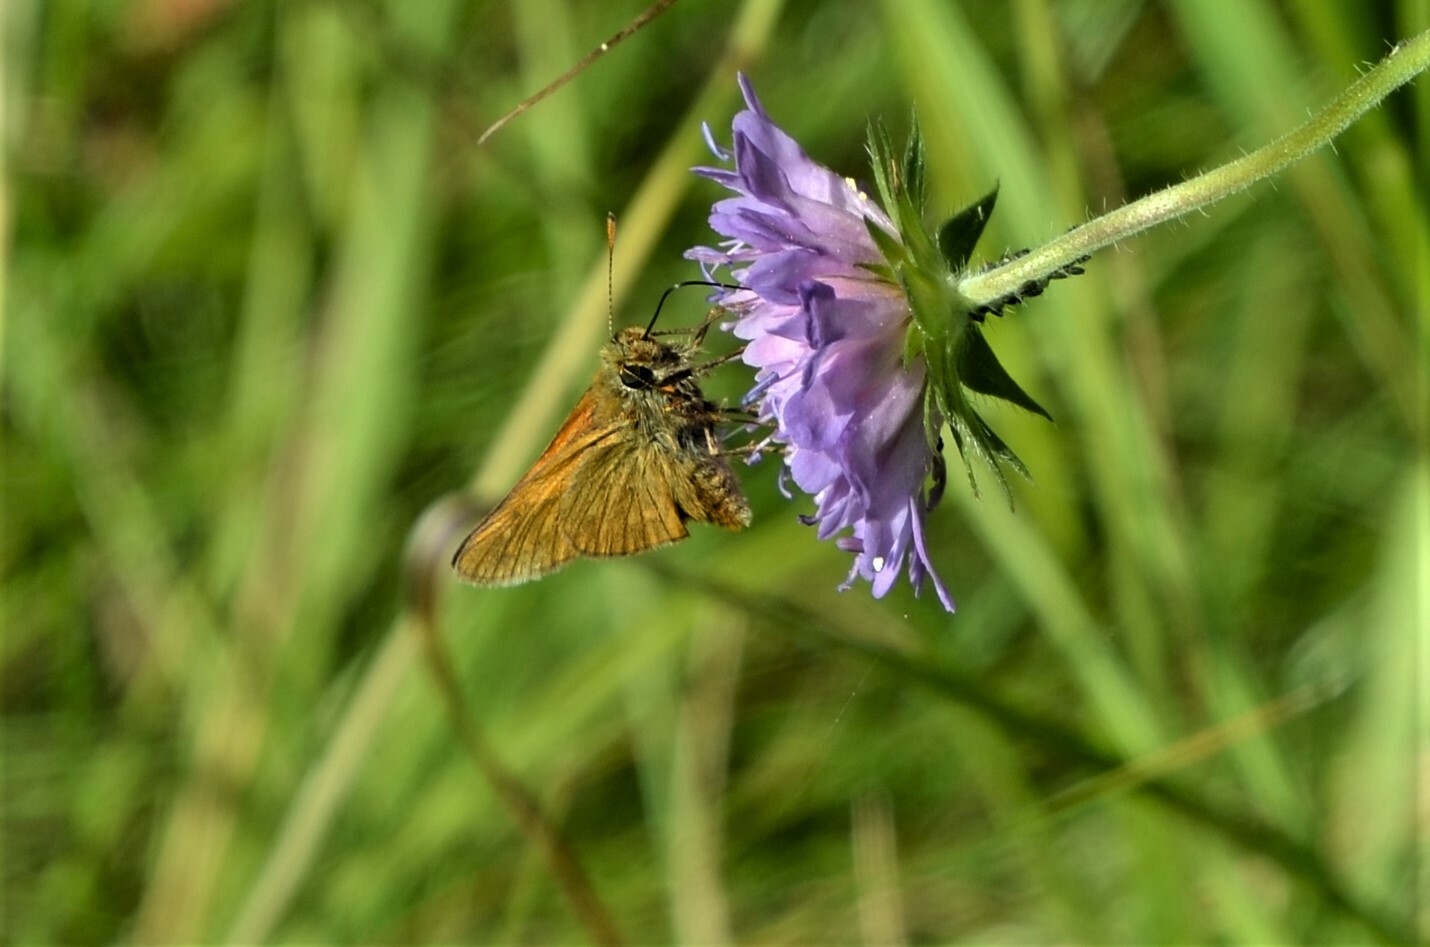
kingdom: Animalia
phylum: Arthropoda
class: Insecta
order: Lepidoptera
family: Hesperiidae
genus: Ochlodes
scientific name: Ochlodes venata
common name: Large skipper
